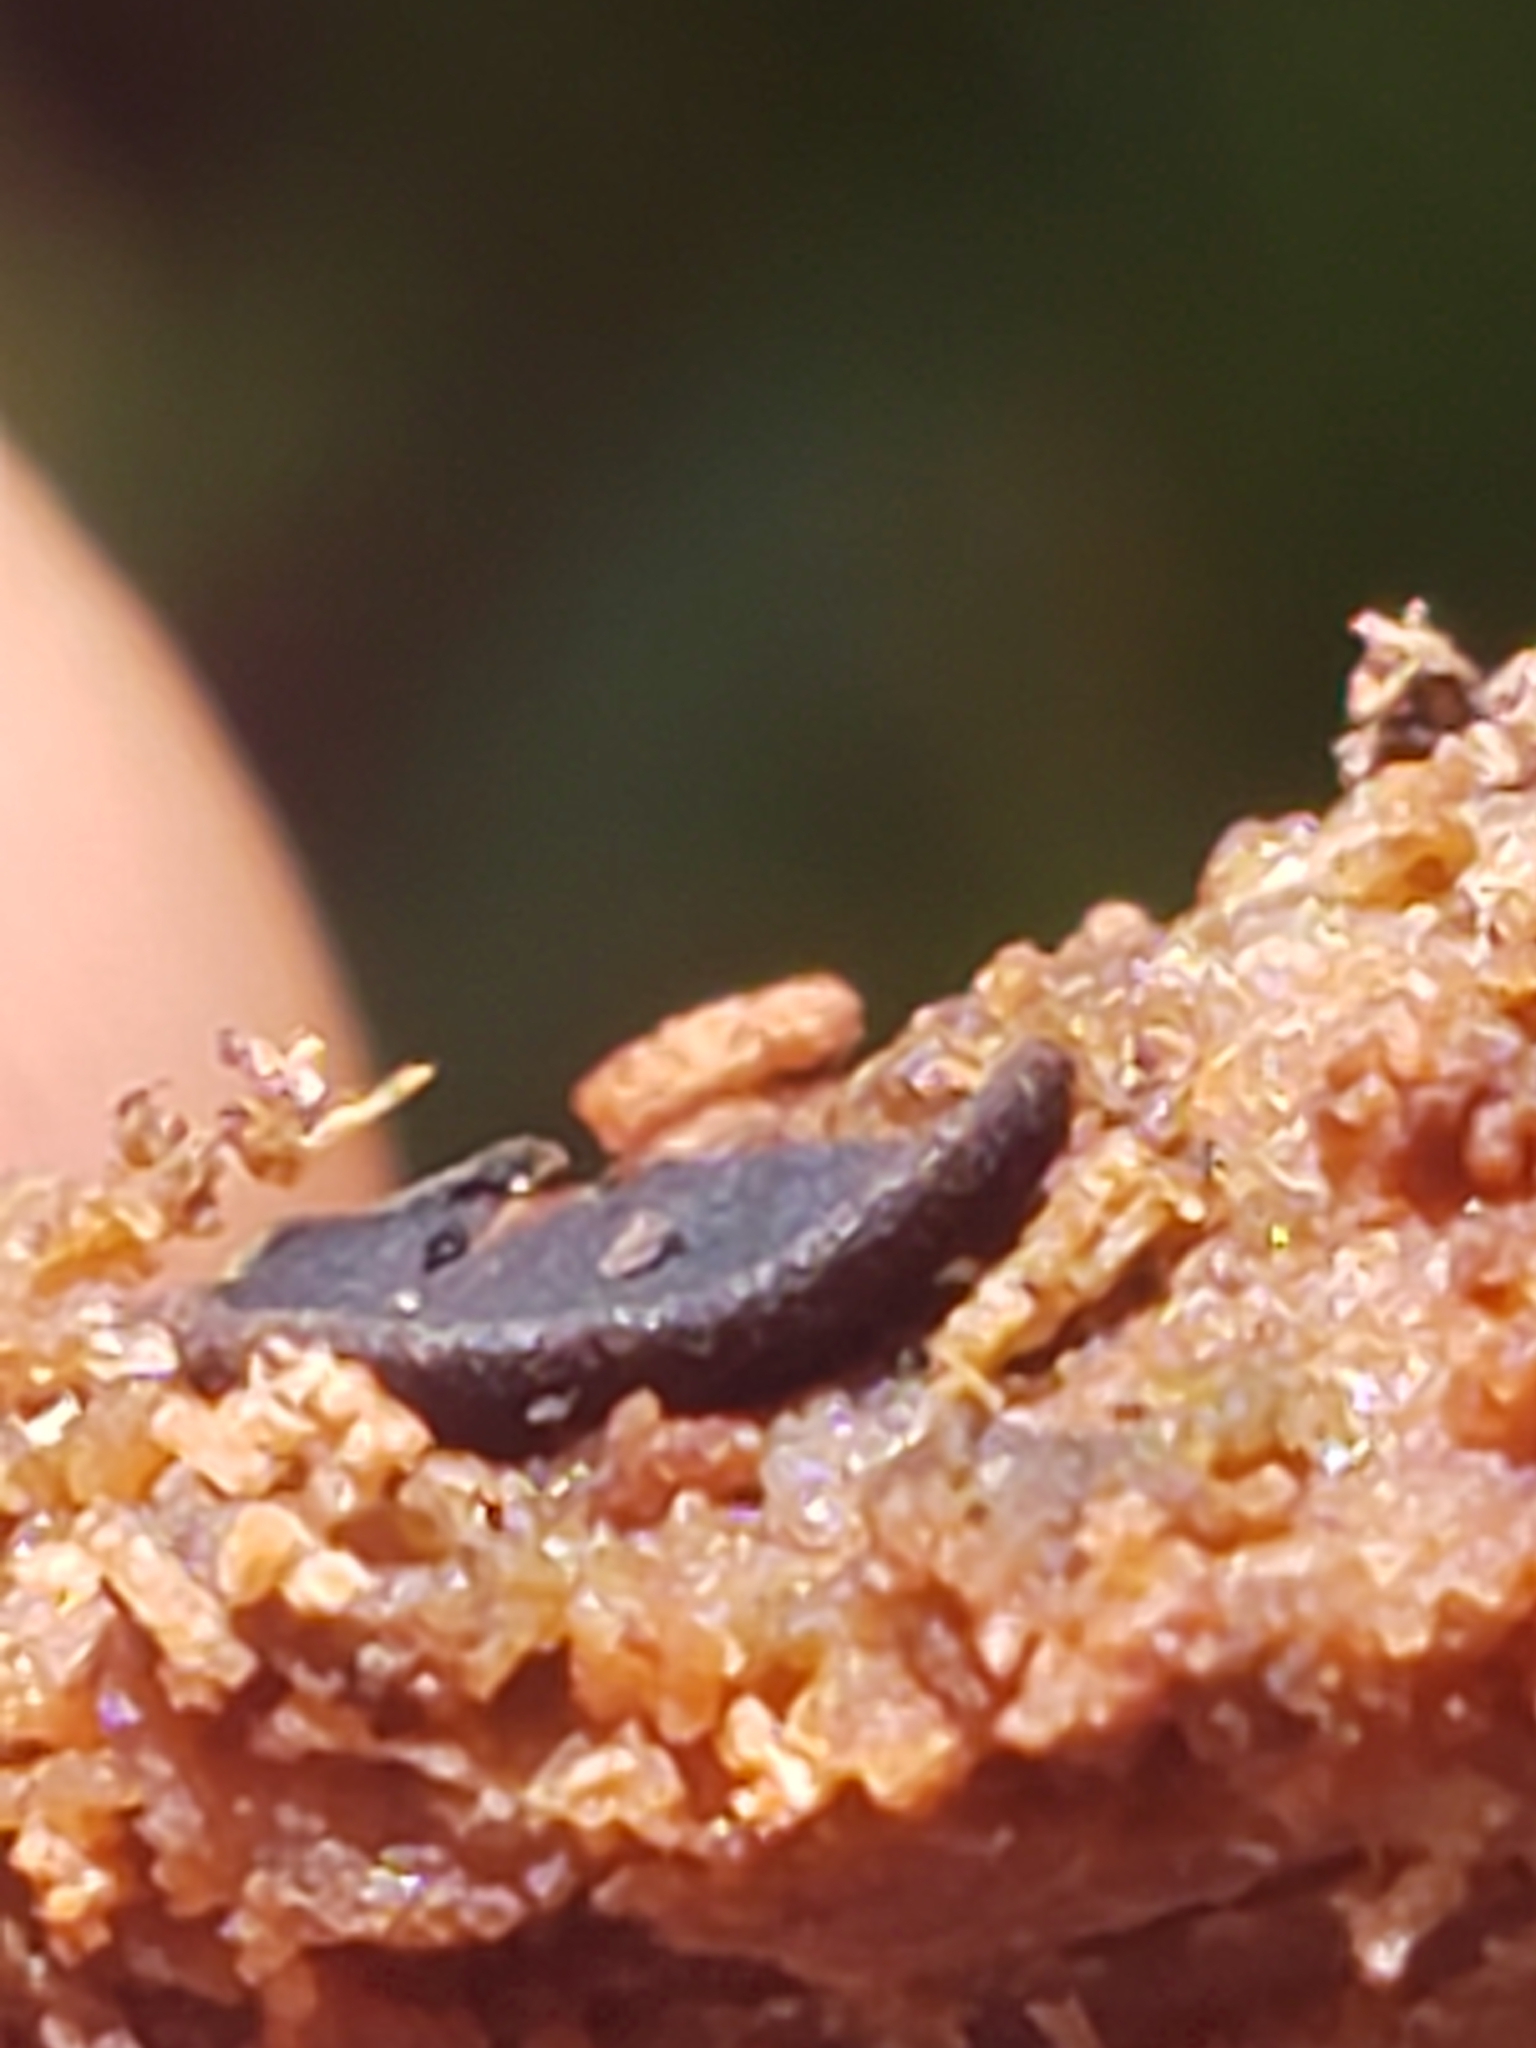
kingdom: Fungi
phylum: Ascomycota
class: Dothideomycetes
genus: Catinella
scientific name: Catinella olivacea
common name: Olive salver
